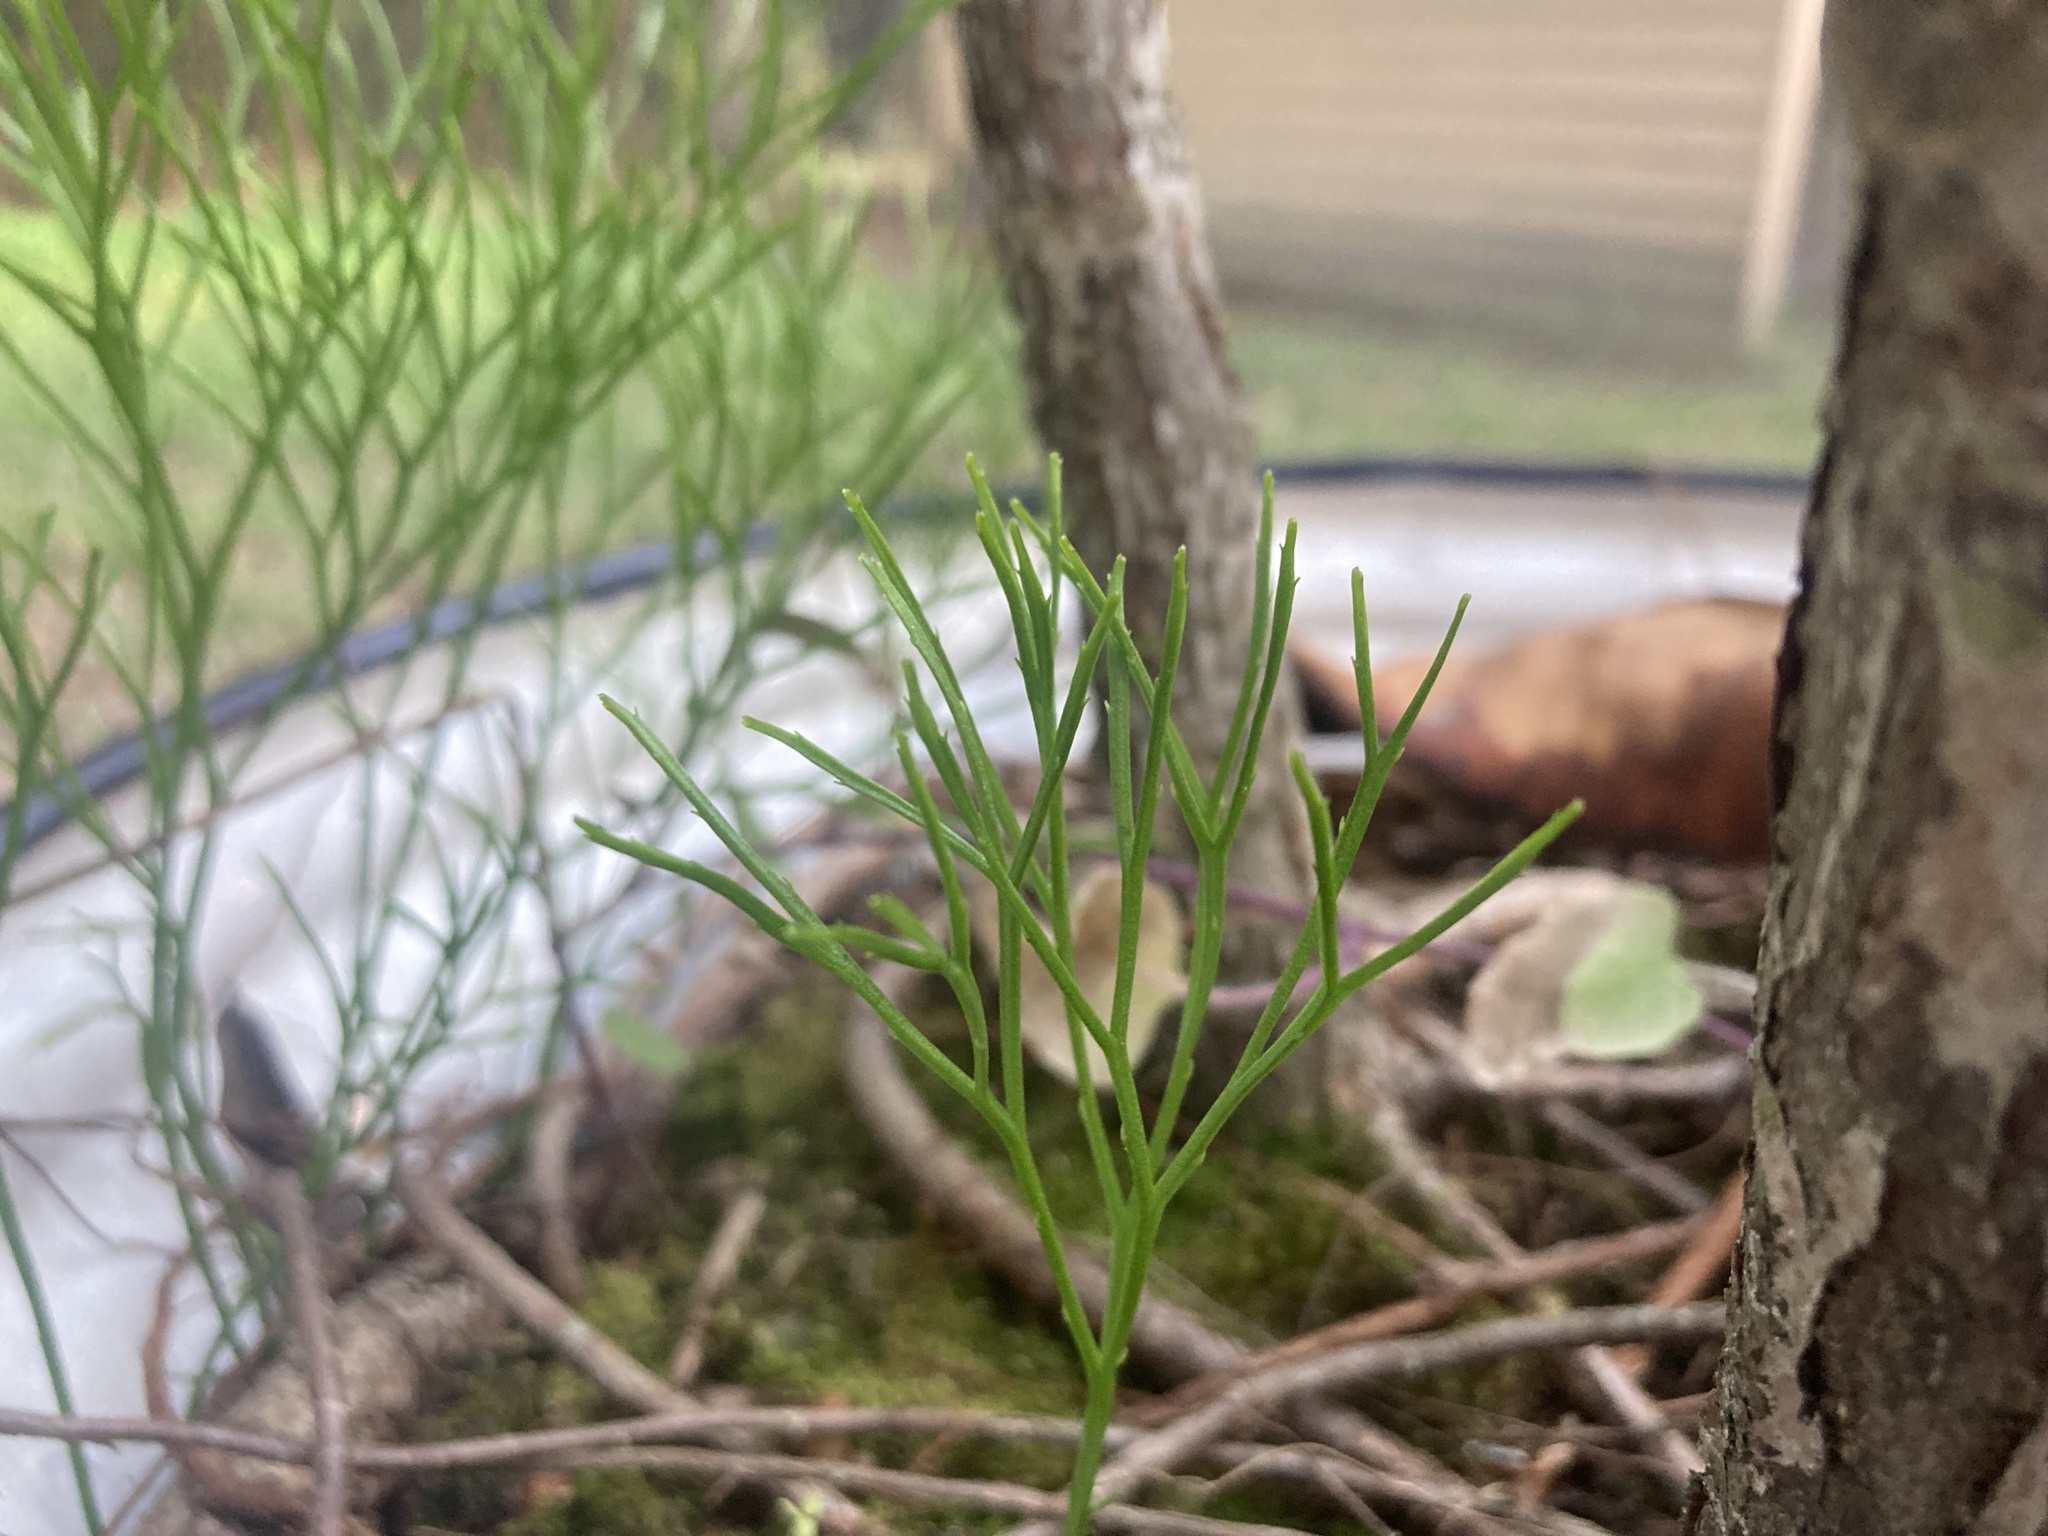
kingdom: Plantae
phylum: Tracheophyta
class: Polypodiopsida
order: Psilotales
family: Psilotaceae
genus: Psilotum
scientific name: Psilotum nudum
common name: Skeleton fork fern
